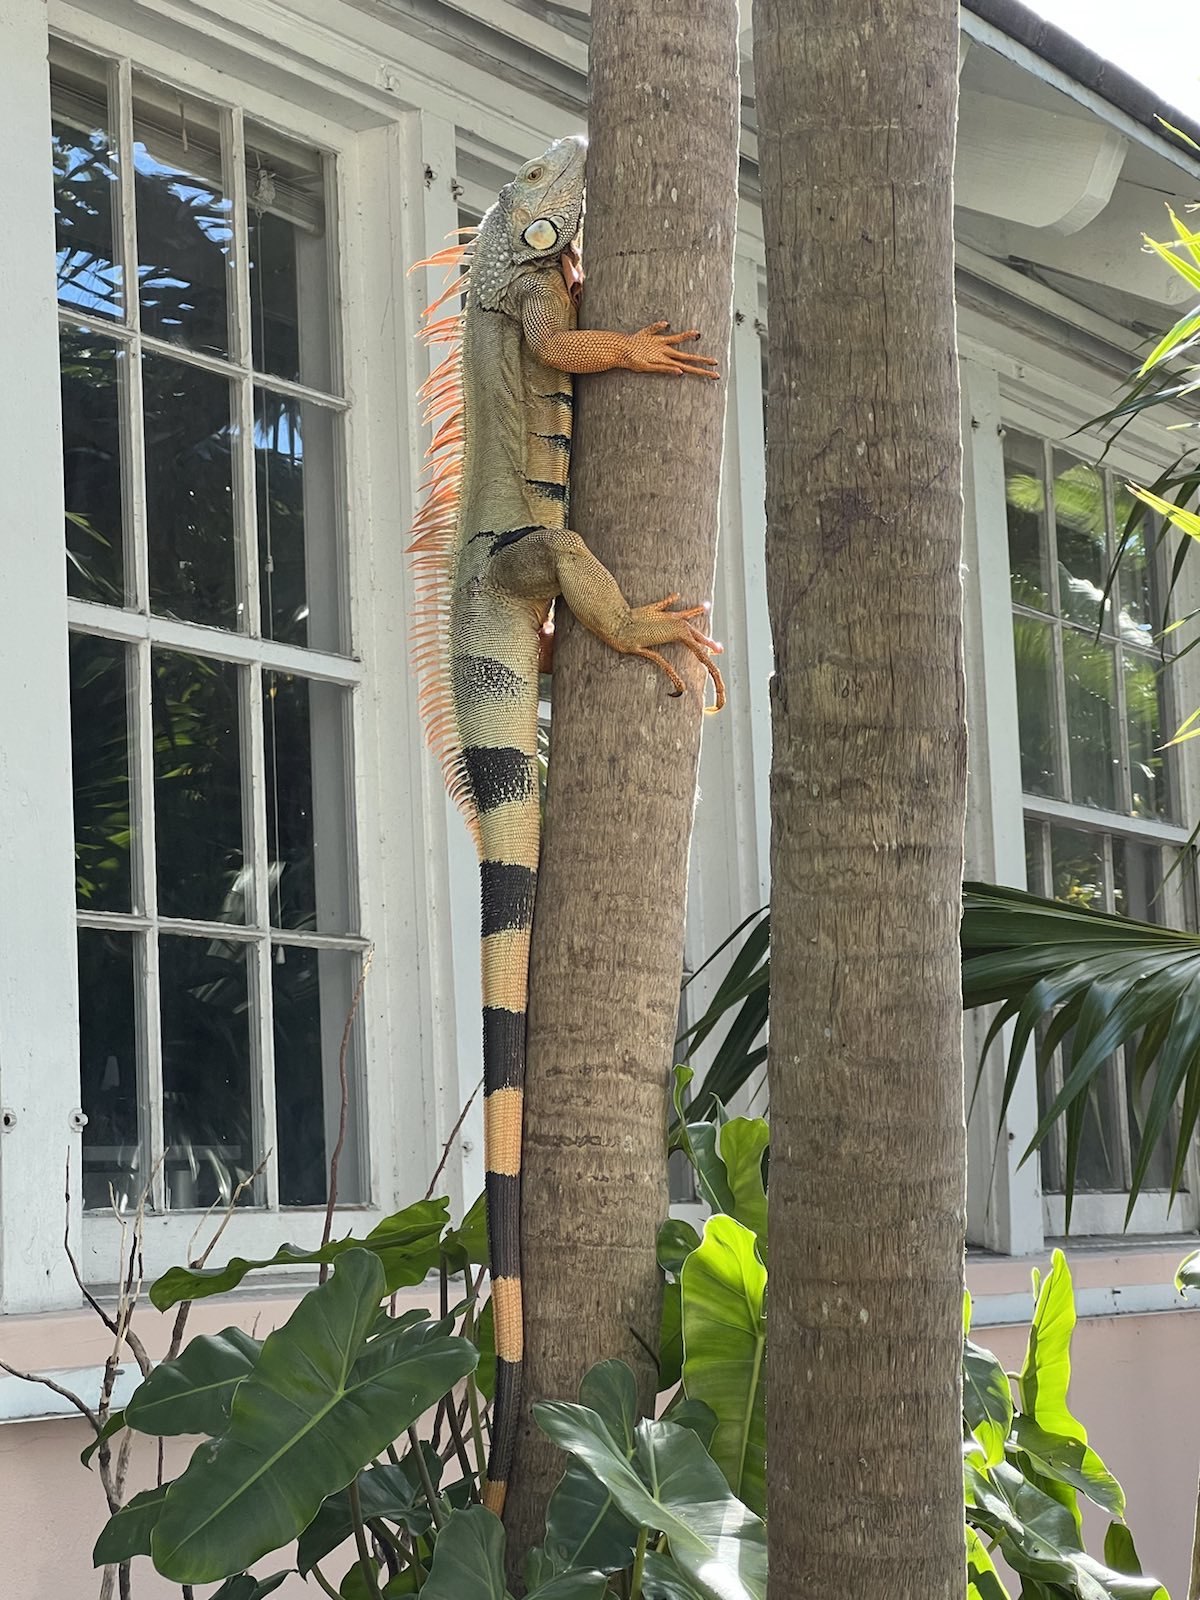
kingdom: Animalia
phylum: Chordata
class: Squamata
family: Iguanidae
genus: Iguana
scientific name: Iguana iguana
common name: Green iguana
